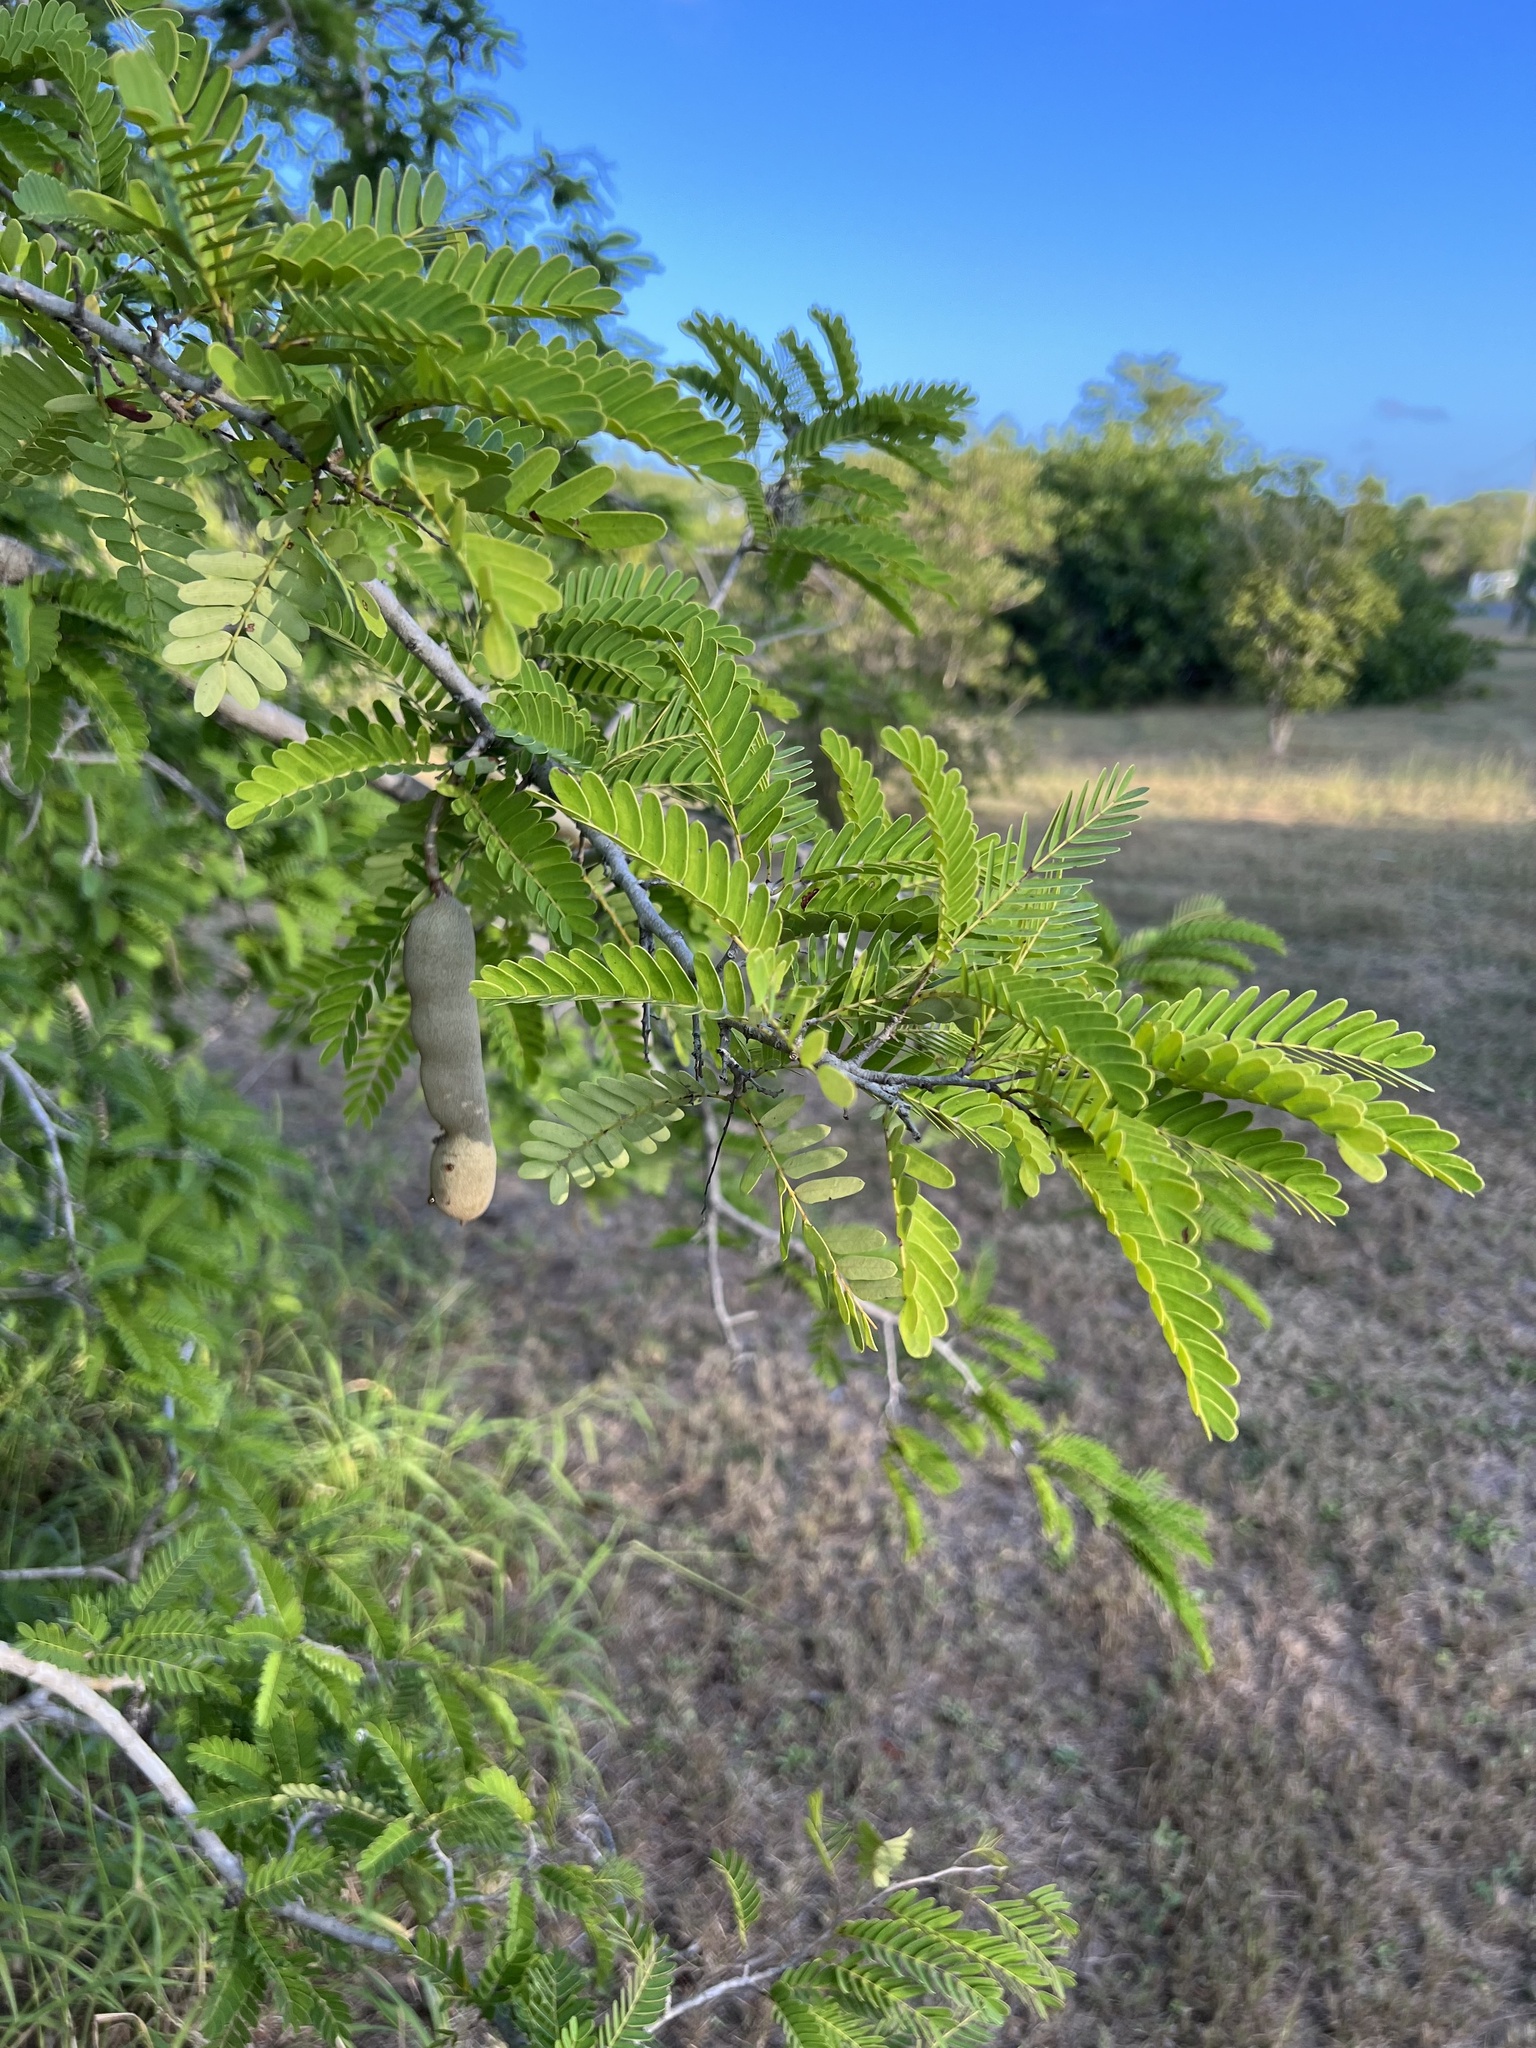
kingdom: Plantae
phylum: Tracheophyta
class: Magnoliopsida
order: Fabales
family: Fabaceae
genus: Tamarindus
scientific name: Tamarindus indica
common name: Tamarind
